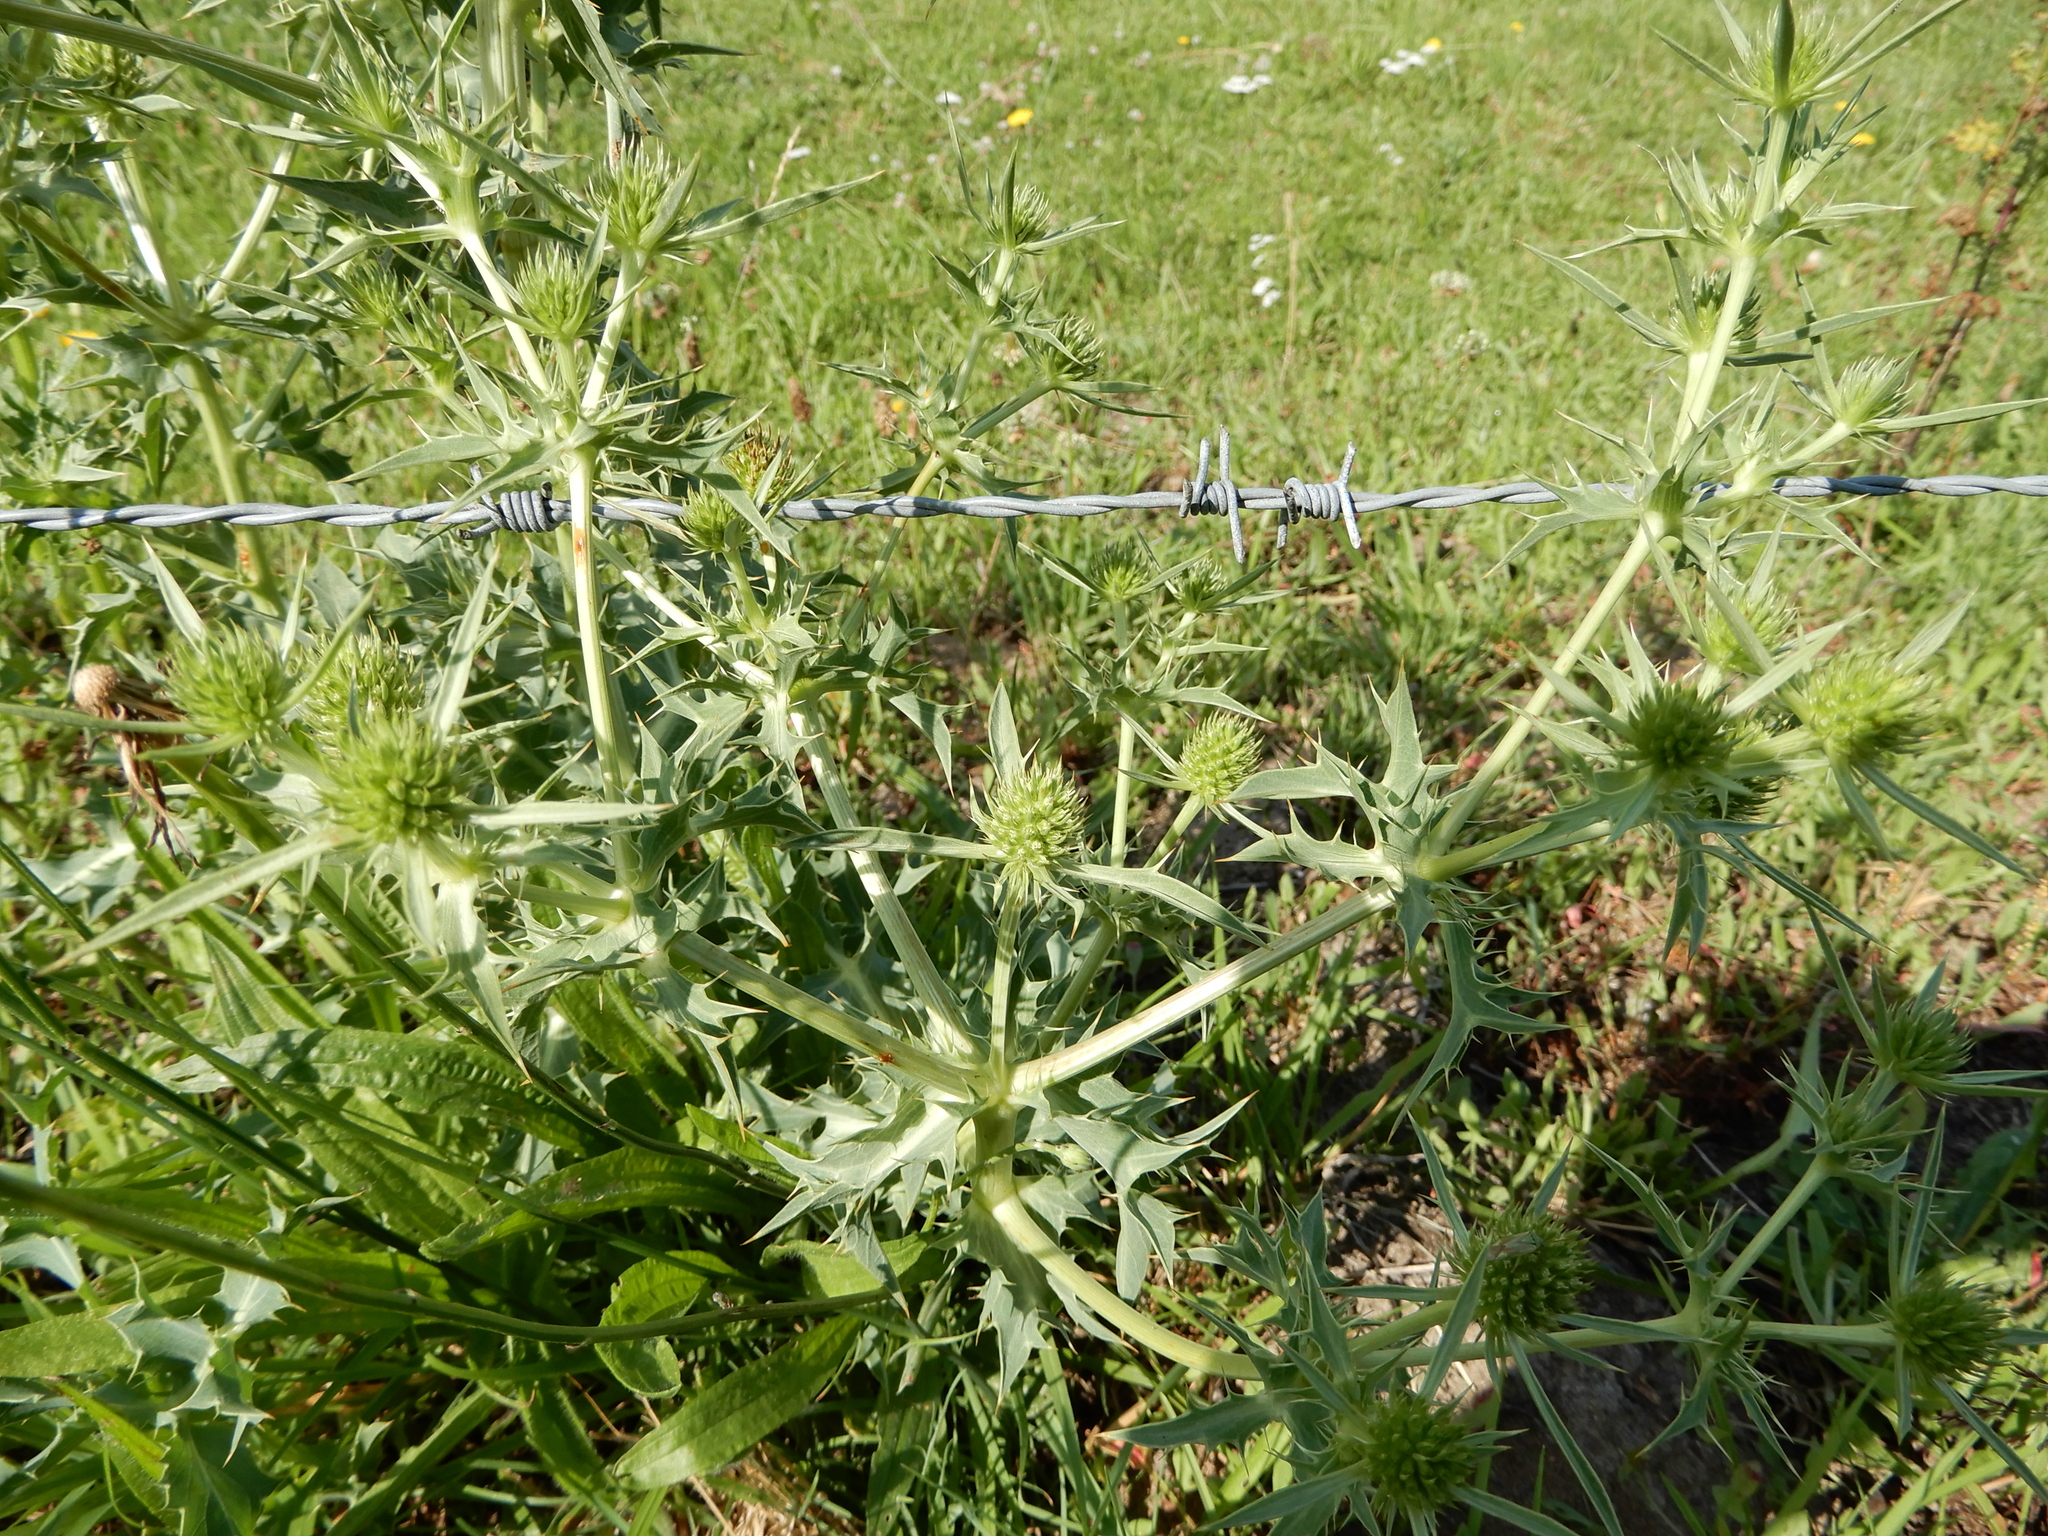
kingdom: Plantae
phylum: Tracheophyta
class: Magnoliopsida
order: Apiales
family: Apiaceae
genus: Eryngium
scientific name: Eryngium campestre
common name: Field eryngo
